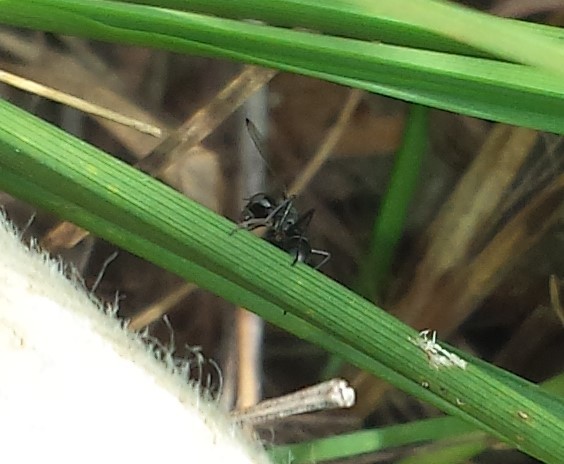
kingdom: Animalia
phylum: Arthropoda
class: Insecta
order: Diptera
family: Ulidiidae
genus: Myrmecothea
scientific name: Myrmecothea myrmecoides
